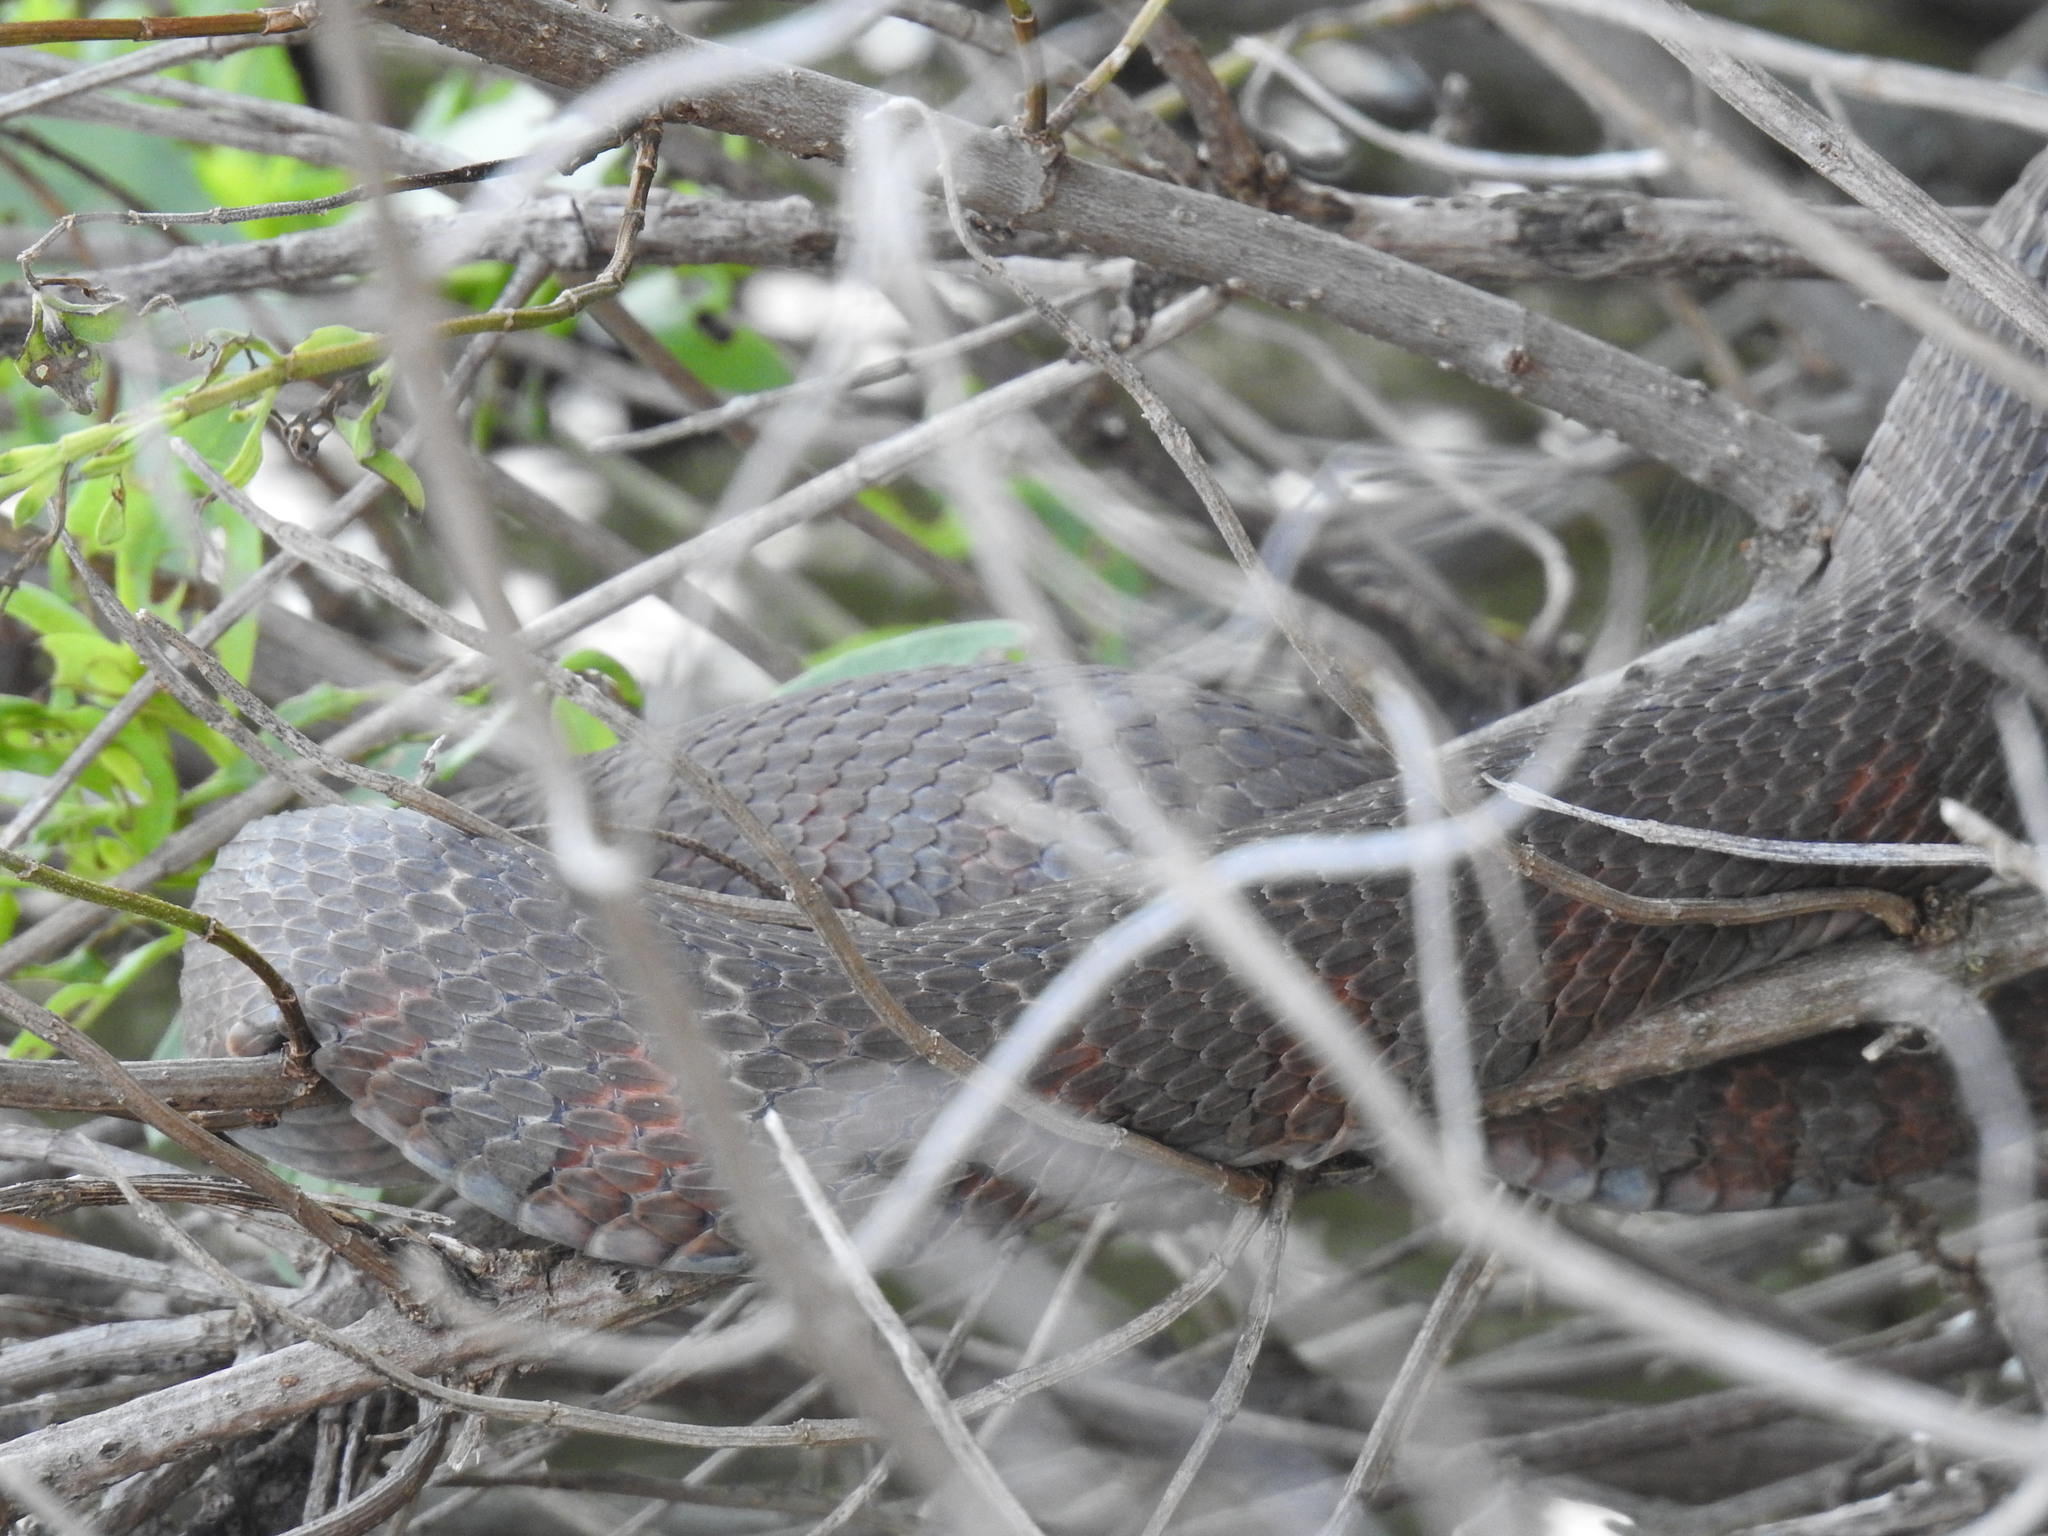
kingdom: Animalia
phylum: Chordata
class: Squamata
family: Colubridae
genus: Nerodia
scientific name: Nerodia sipedon
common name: Northern water snake
